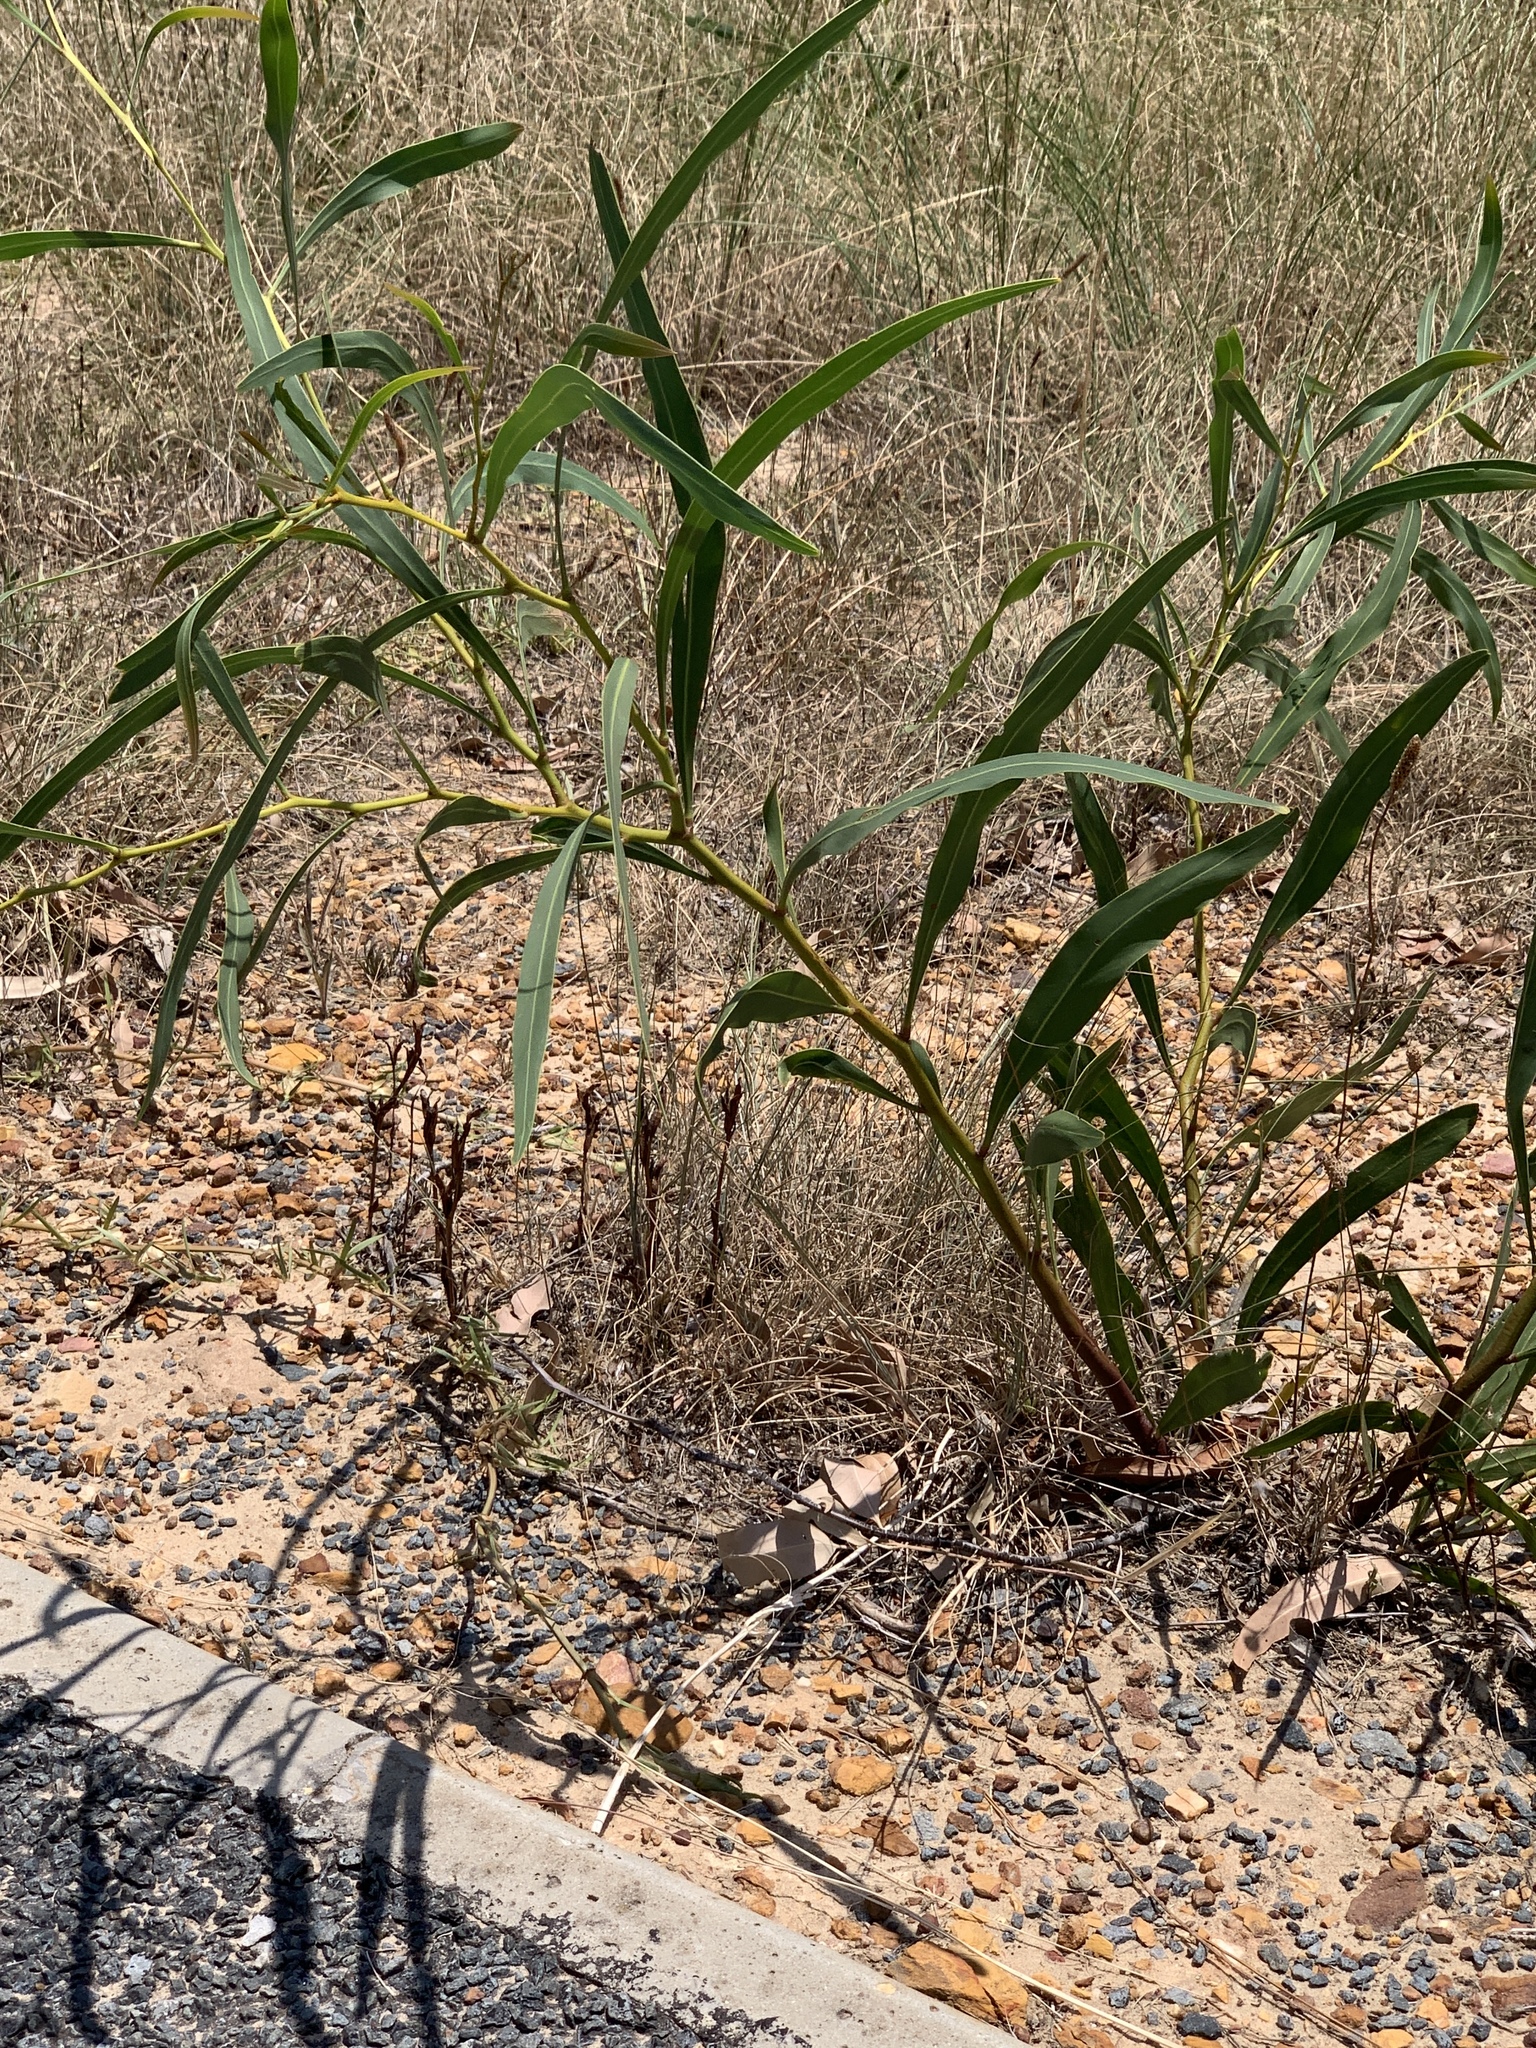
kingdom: Plantae
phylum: Tracheophyta
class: Magnoliopsida
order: Fabales
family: Fabaceae
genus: Acacia
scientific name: Acacia saligna
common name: Orange wattle
